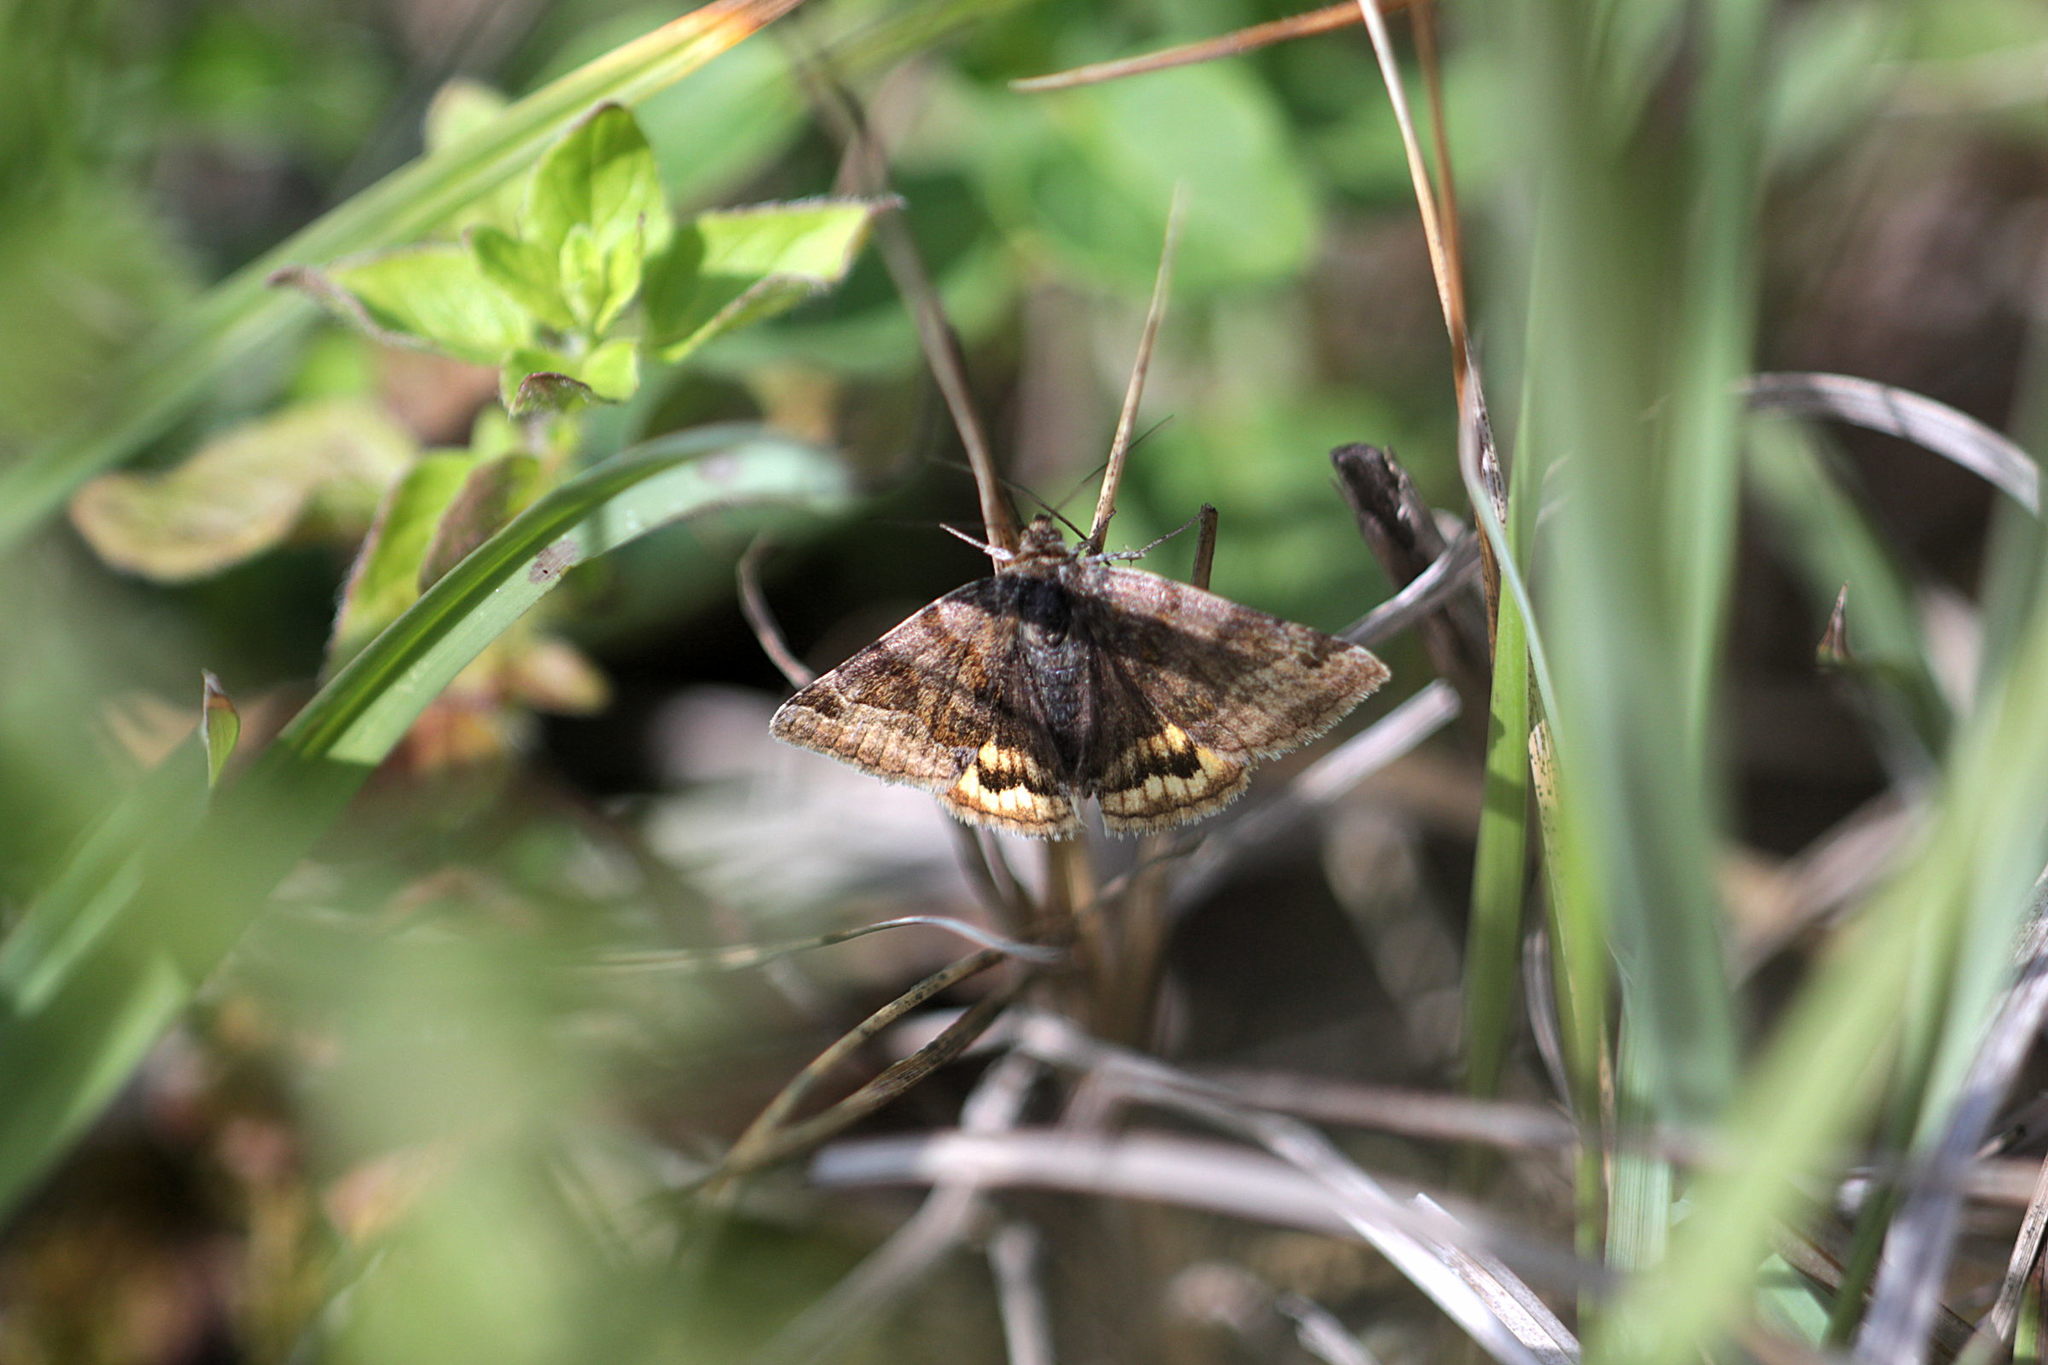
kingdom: Animalia
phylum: Arthropoda
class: Insecta
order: Lepidoptera
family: Erebidae
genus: Euclidia
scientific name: Euclidia glyphica
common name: Burnet companion
